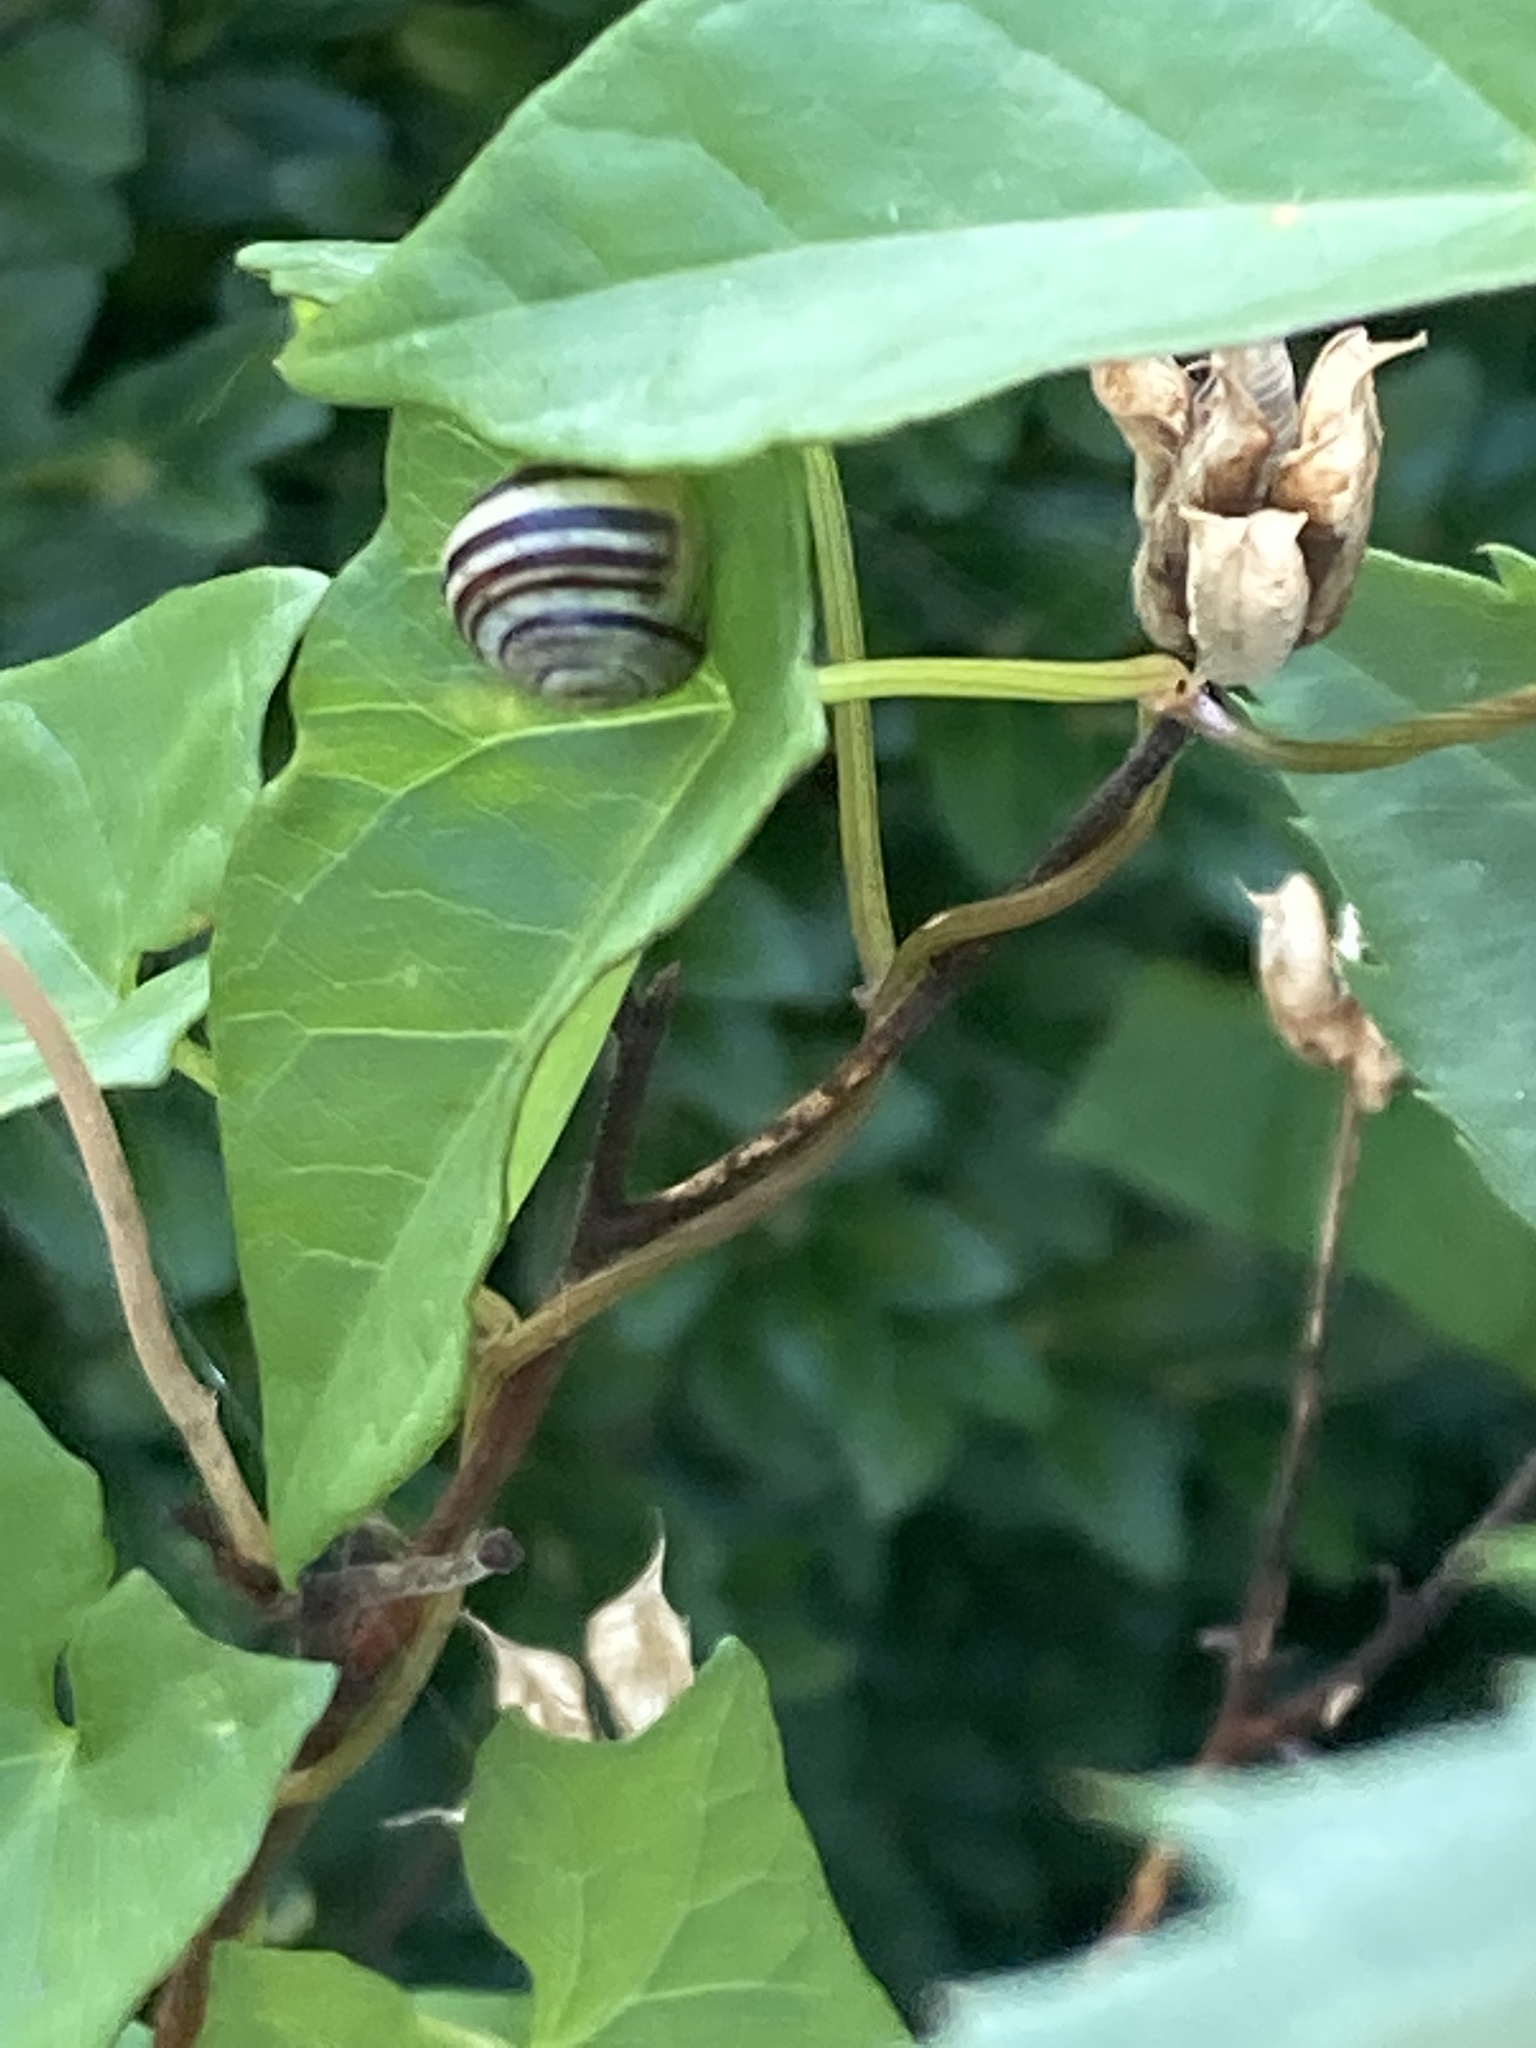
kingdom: Animalia
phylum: Mollusca
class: Gastropoda
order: Stylommatophora
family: Helicidae
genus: Cepaea
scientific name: Cepaea
